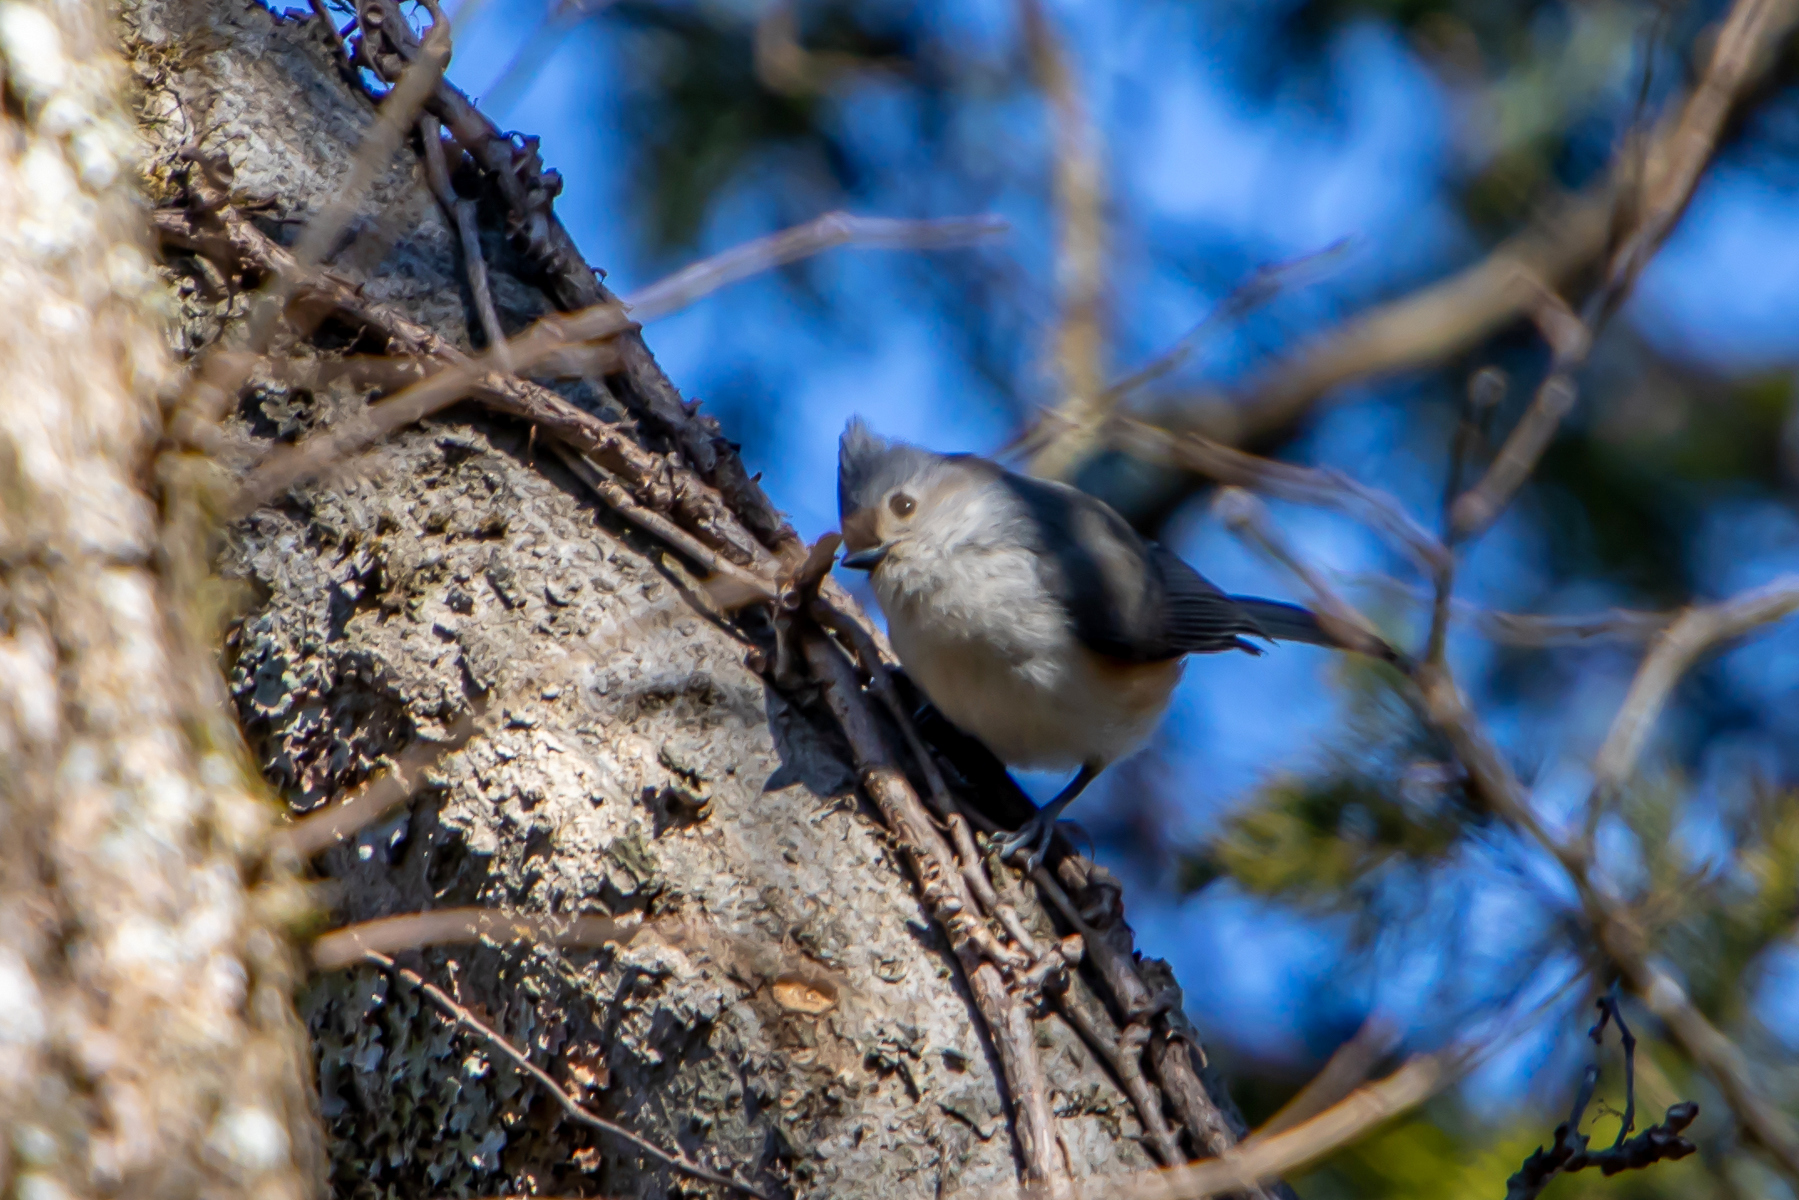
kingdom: Animalia
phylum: Chordata
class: Aves
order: Passeriformes
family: Paridae
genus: Baeolophus
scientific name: Baeolophus bicolor
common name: Tufted titmouse
